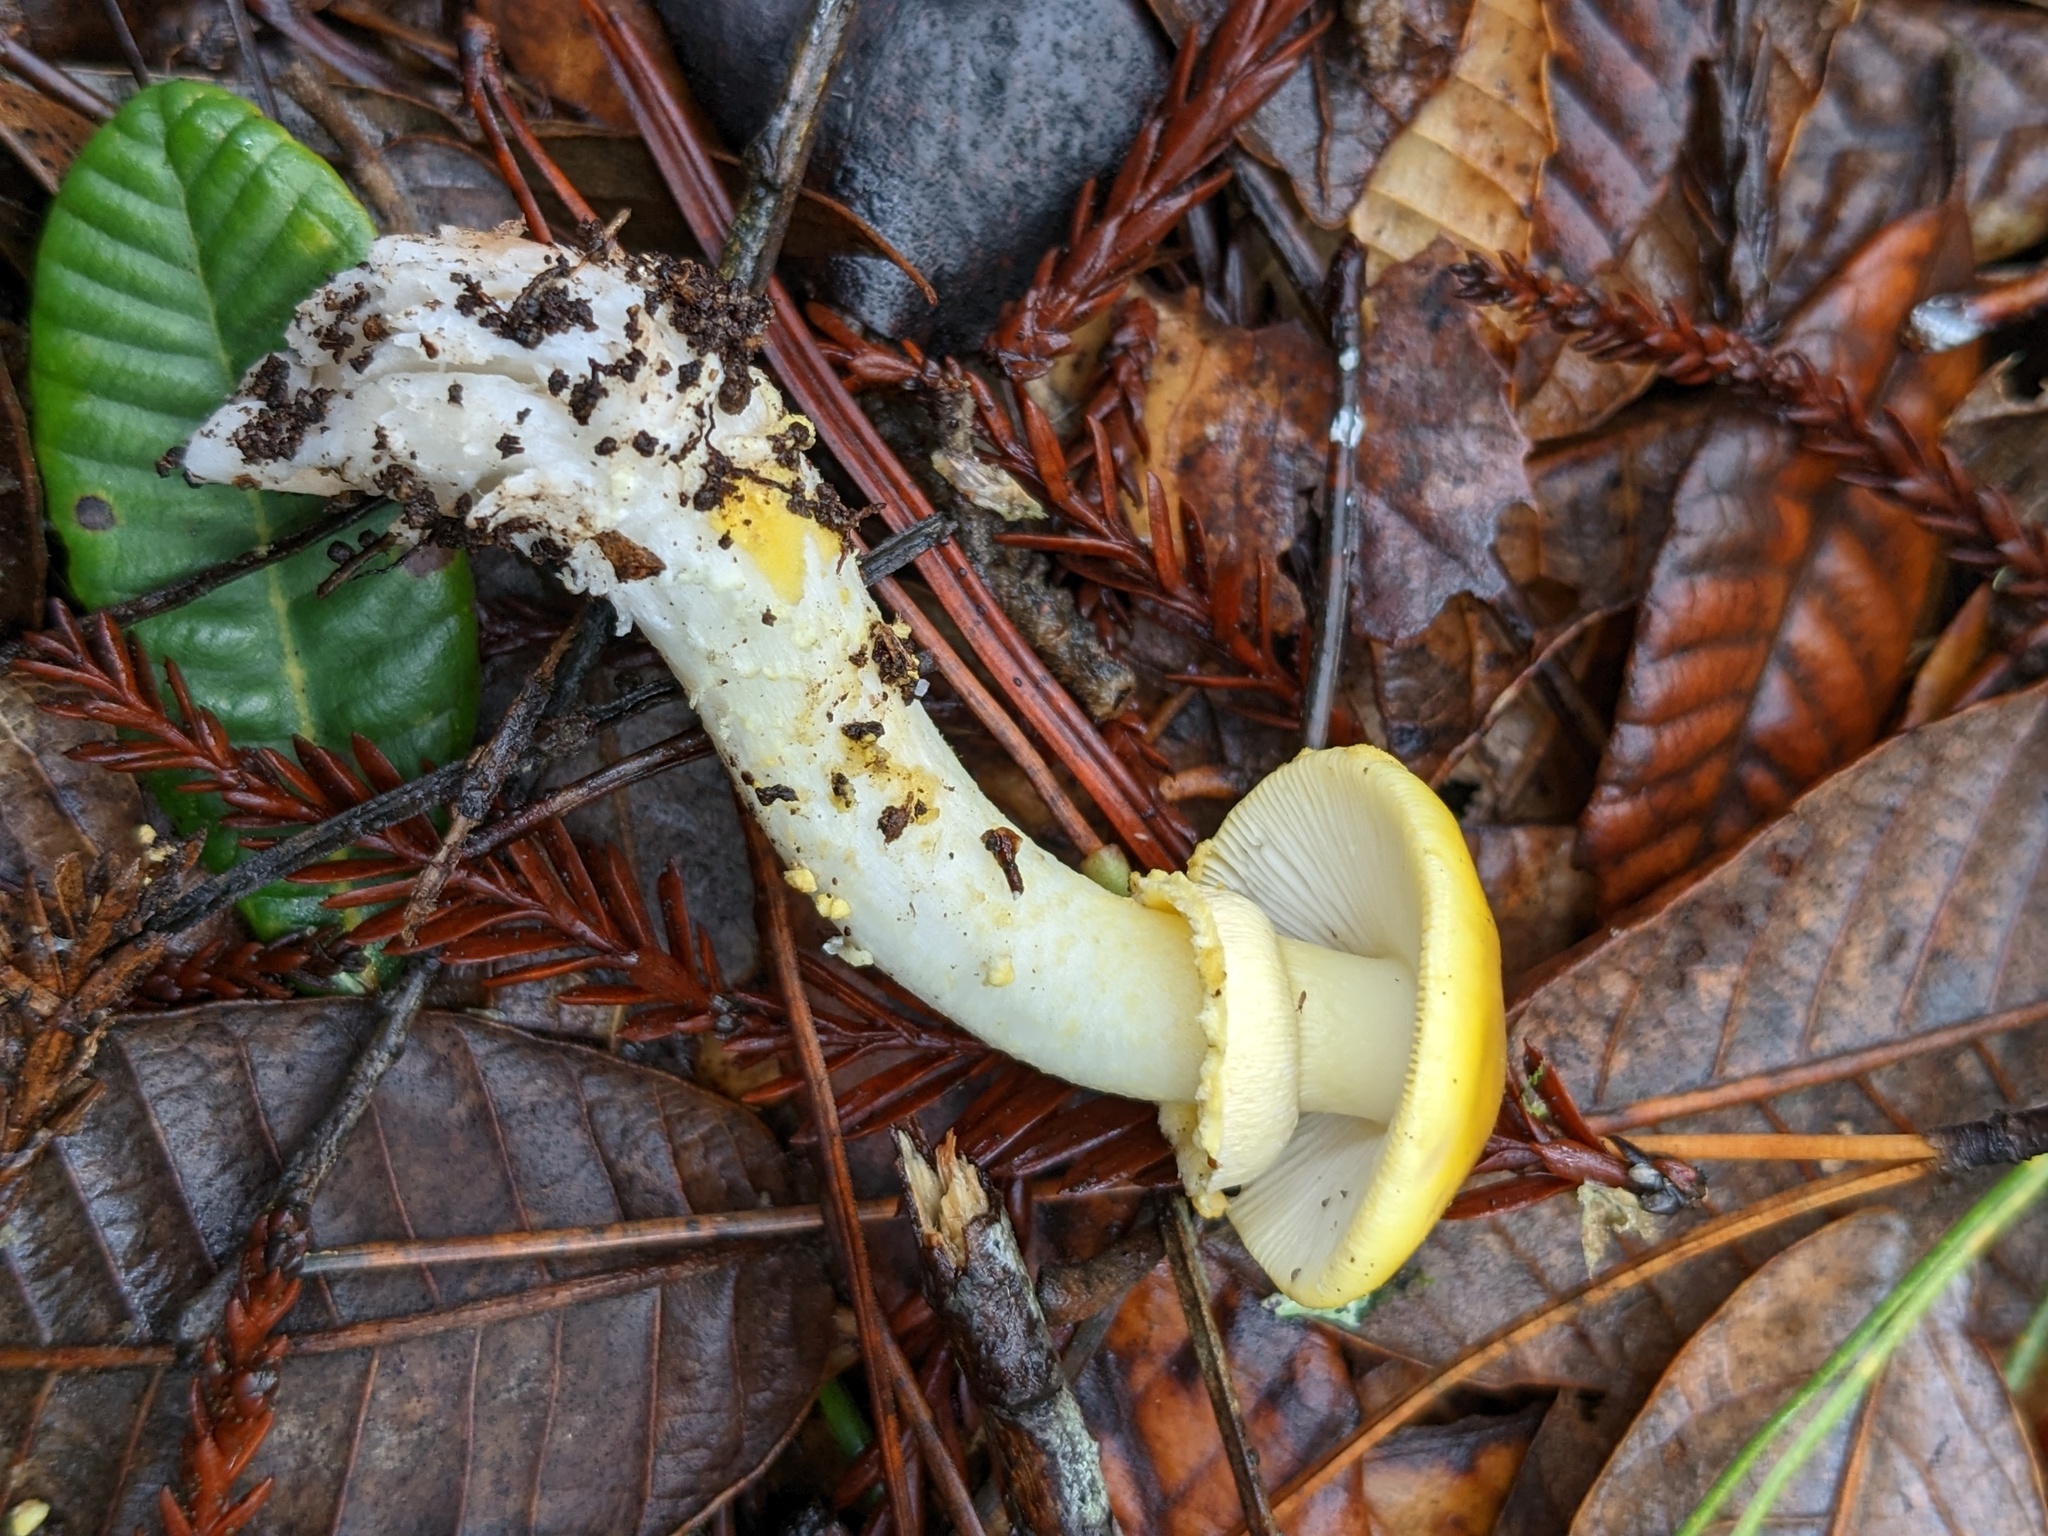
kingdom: Fungi
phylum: Basidiomycota
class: Agaricomycetes
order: Agaricales
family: Amanitaceae
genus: Amanita
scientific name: Amanita augusta
